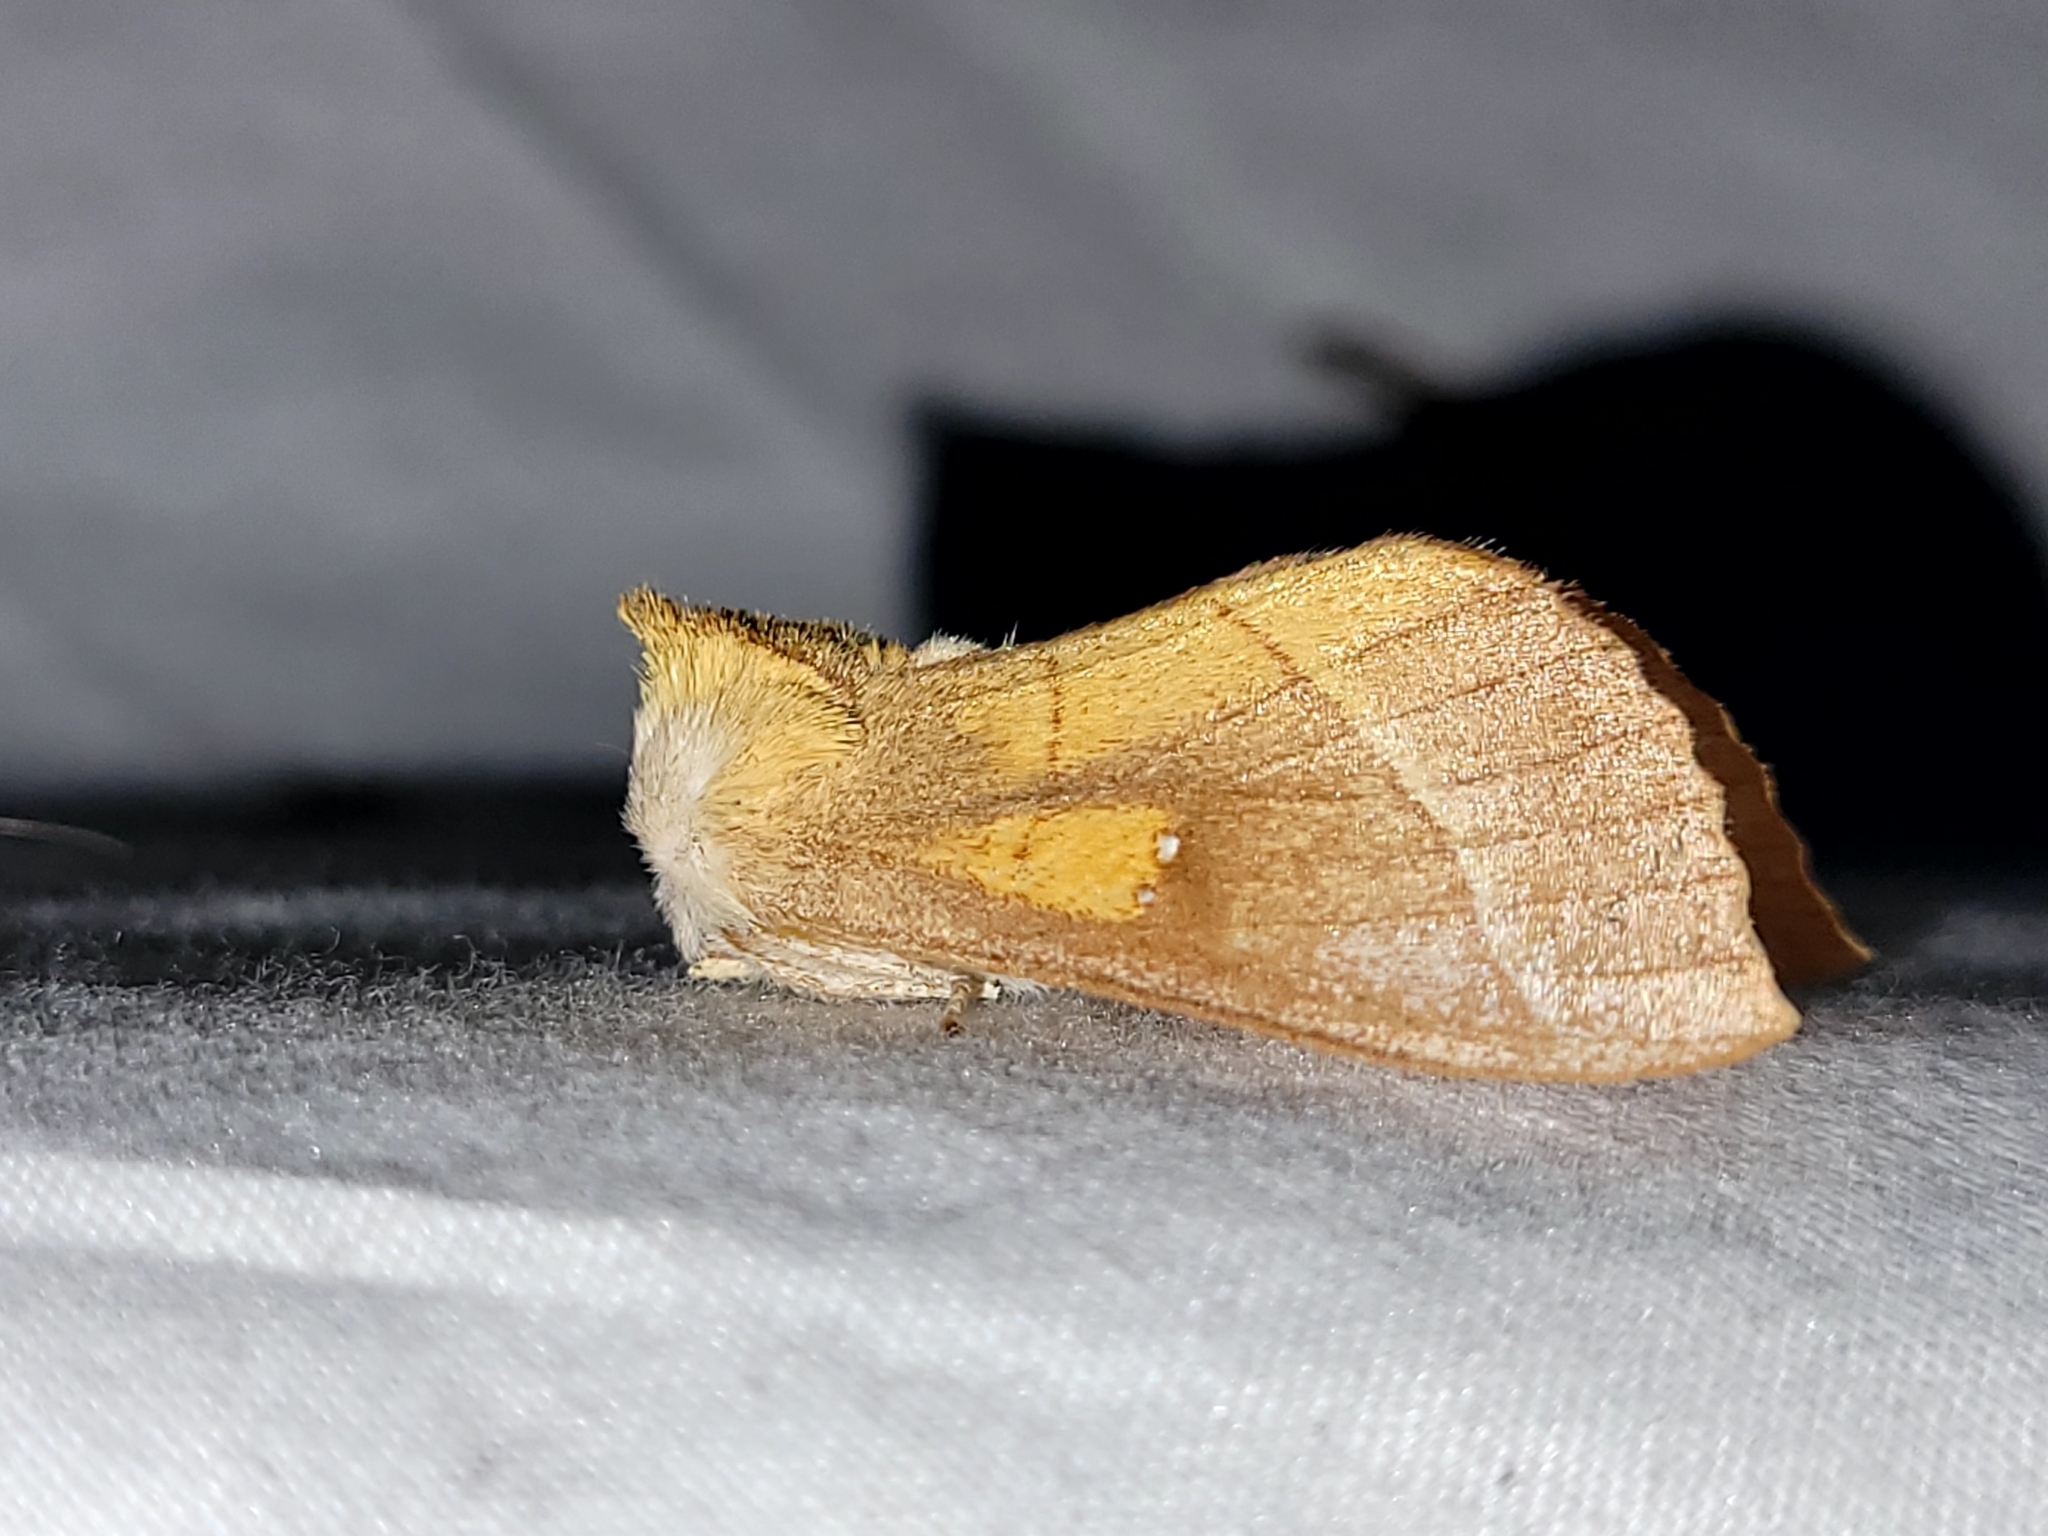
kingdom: Animalia
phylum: Arthropoda
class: Insecta
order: Lepidoptera
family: Notodontidae
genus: Nadata
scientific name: Nadata gibbosa
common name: White-dotted prominent
